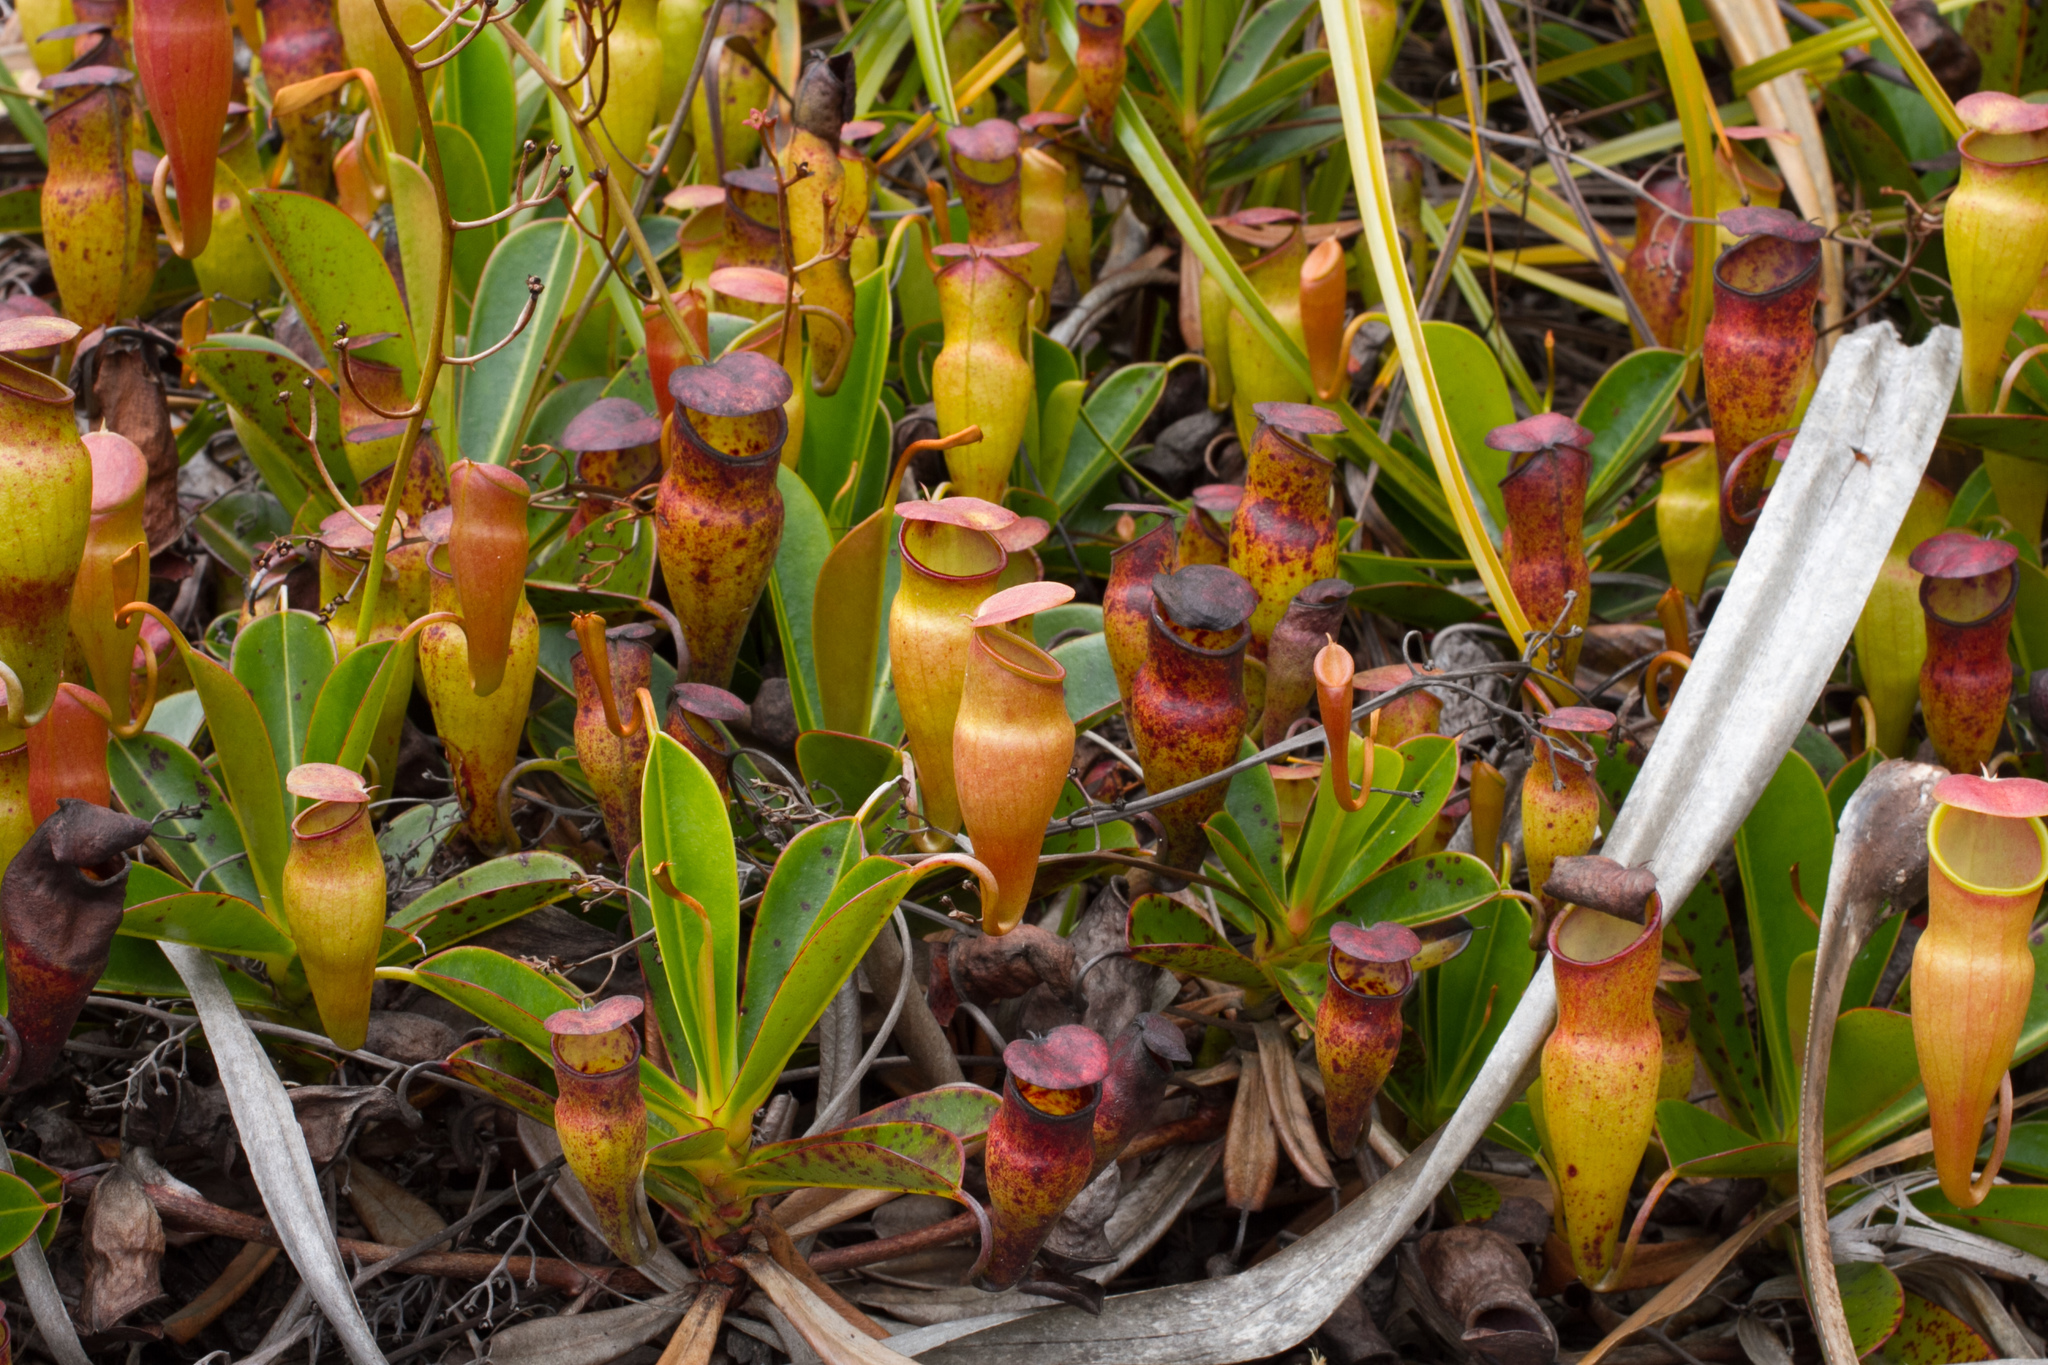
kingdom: Plantae
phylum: Tracheophyta
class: Magnoliopsida
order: Caryophyllales
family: Nepenthaceae
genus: Nepenthes
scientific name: Nepenthes pervillei
